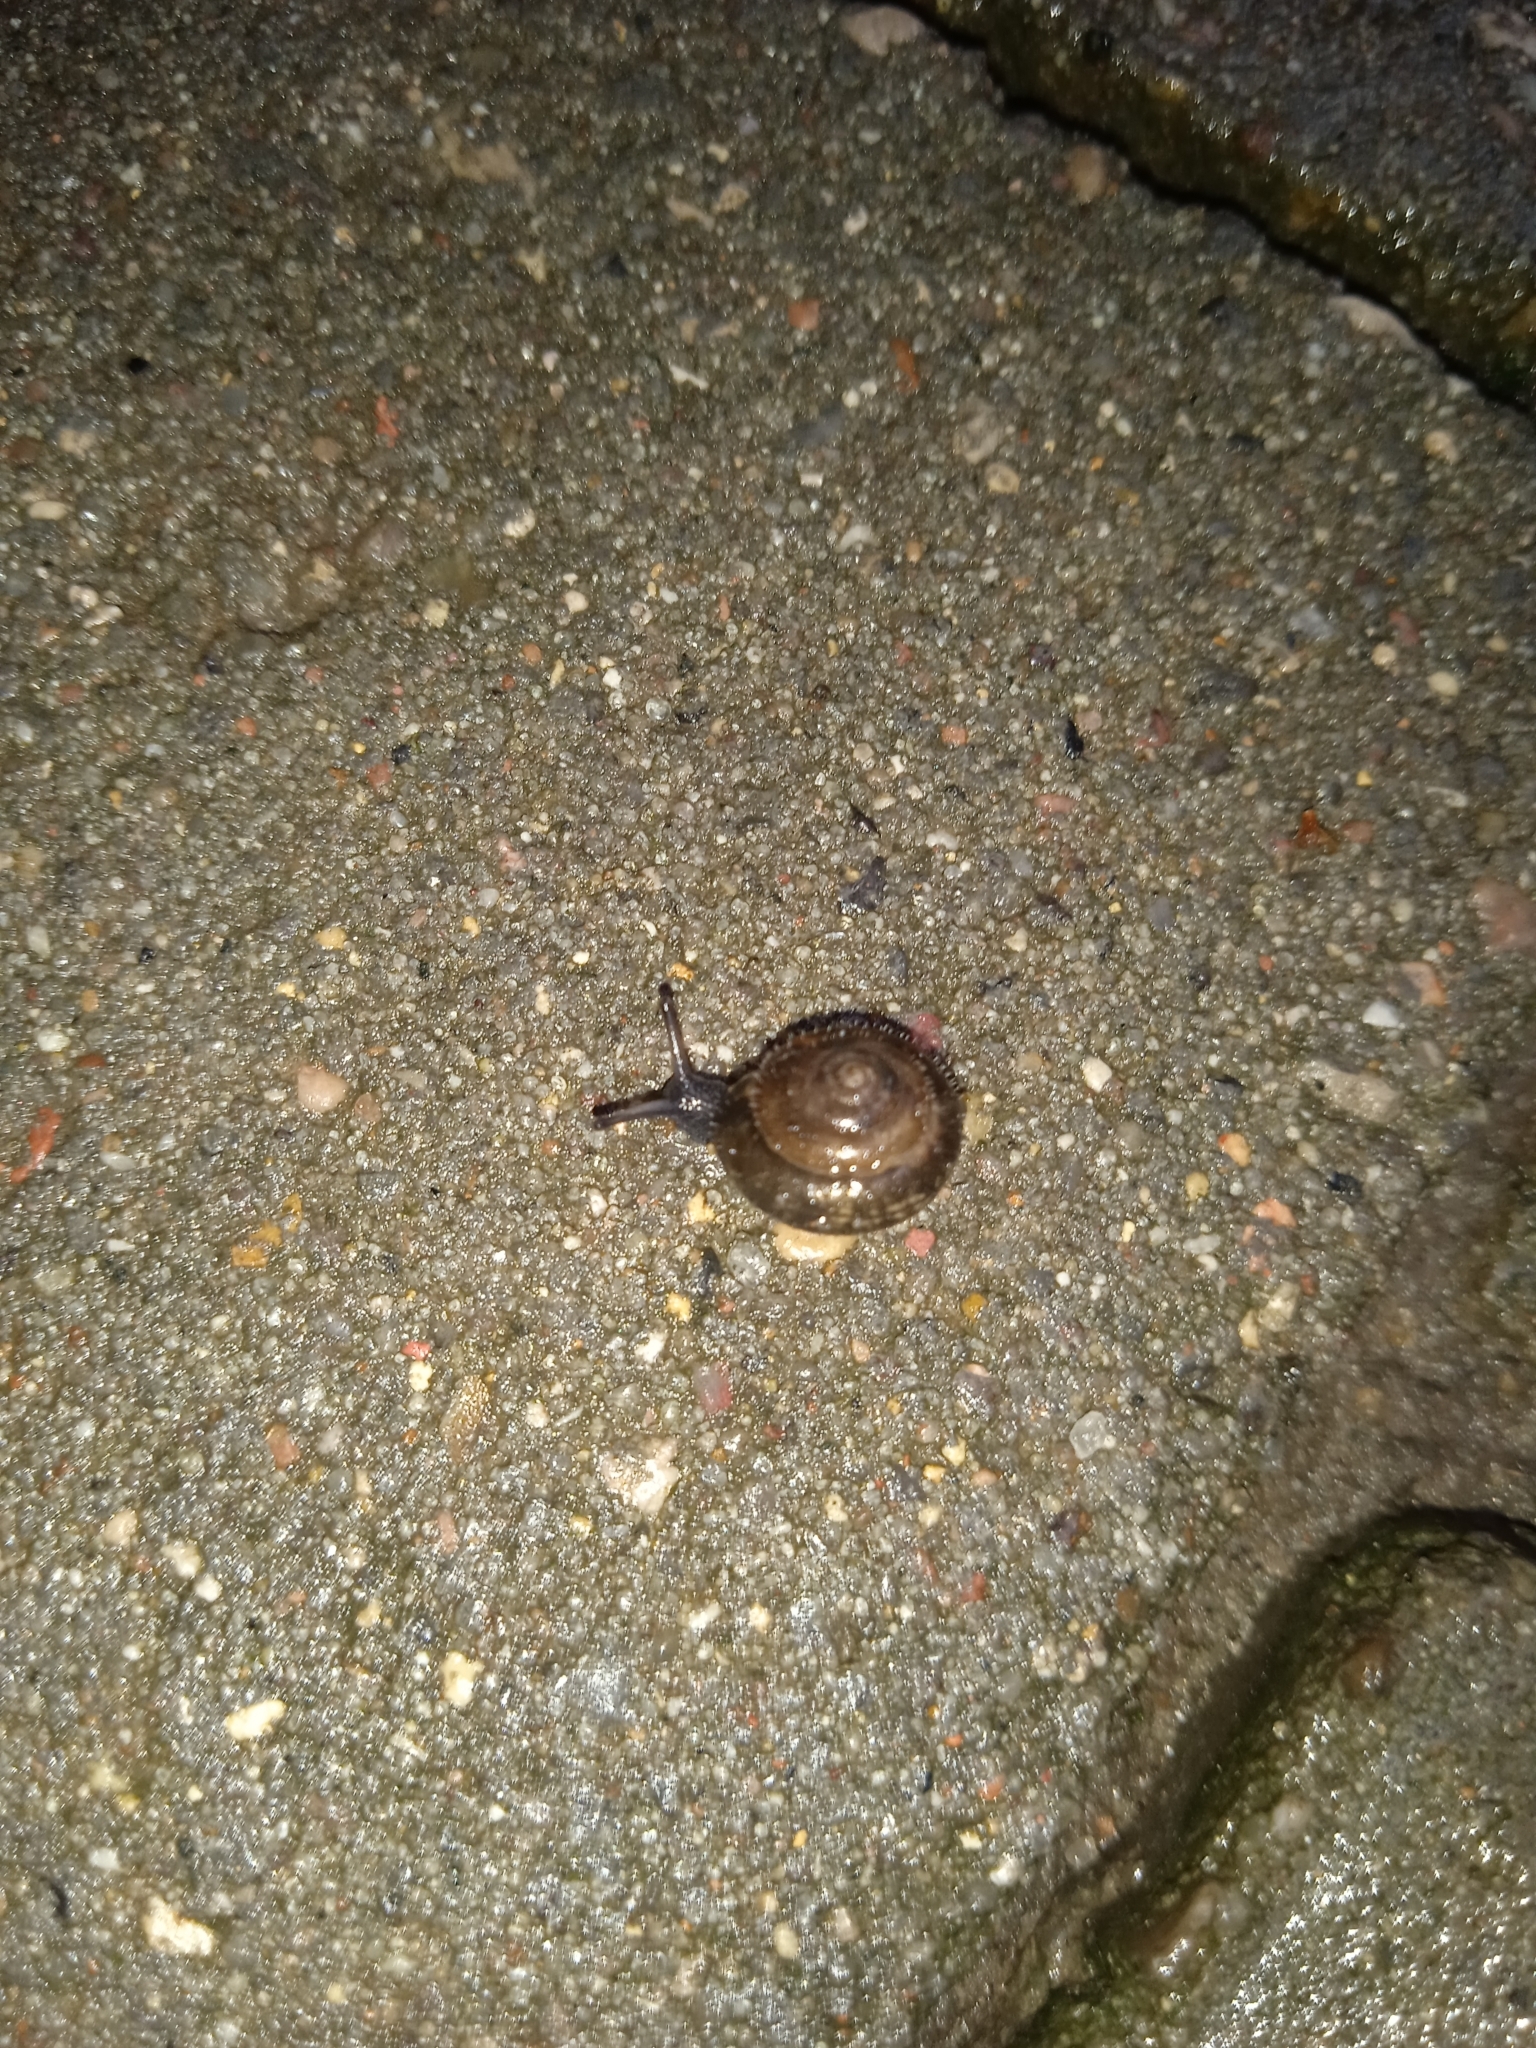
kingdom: Animalia
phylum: Mollusca
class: Gastropoda
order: Stylommatophora
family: Hygromiidae
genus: Trochulus
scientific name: Trochulus hispidus
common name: Hairy snail
